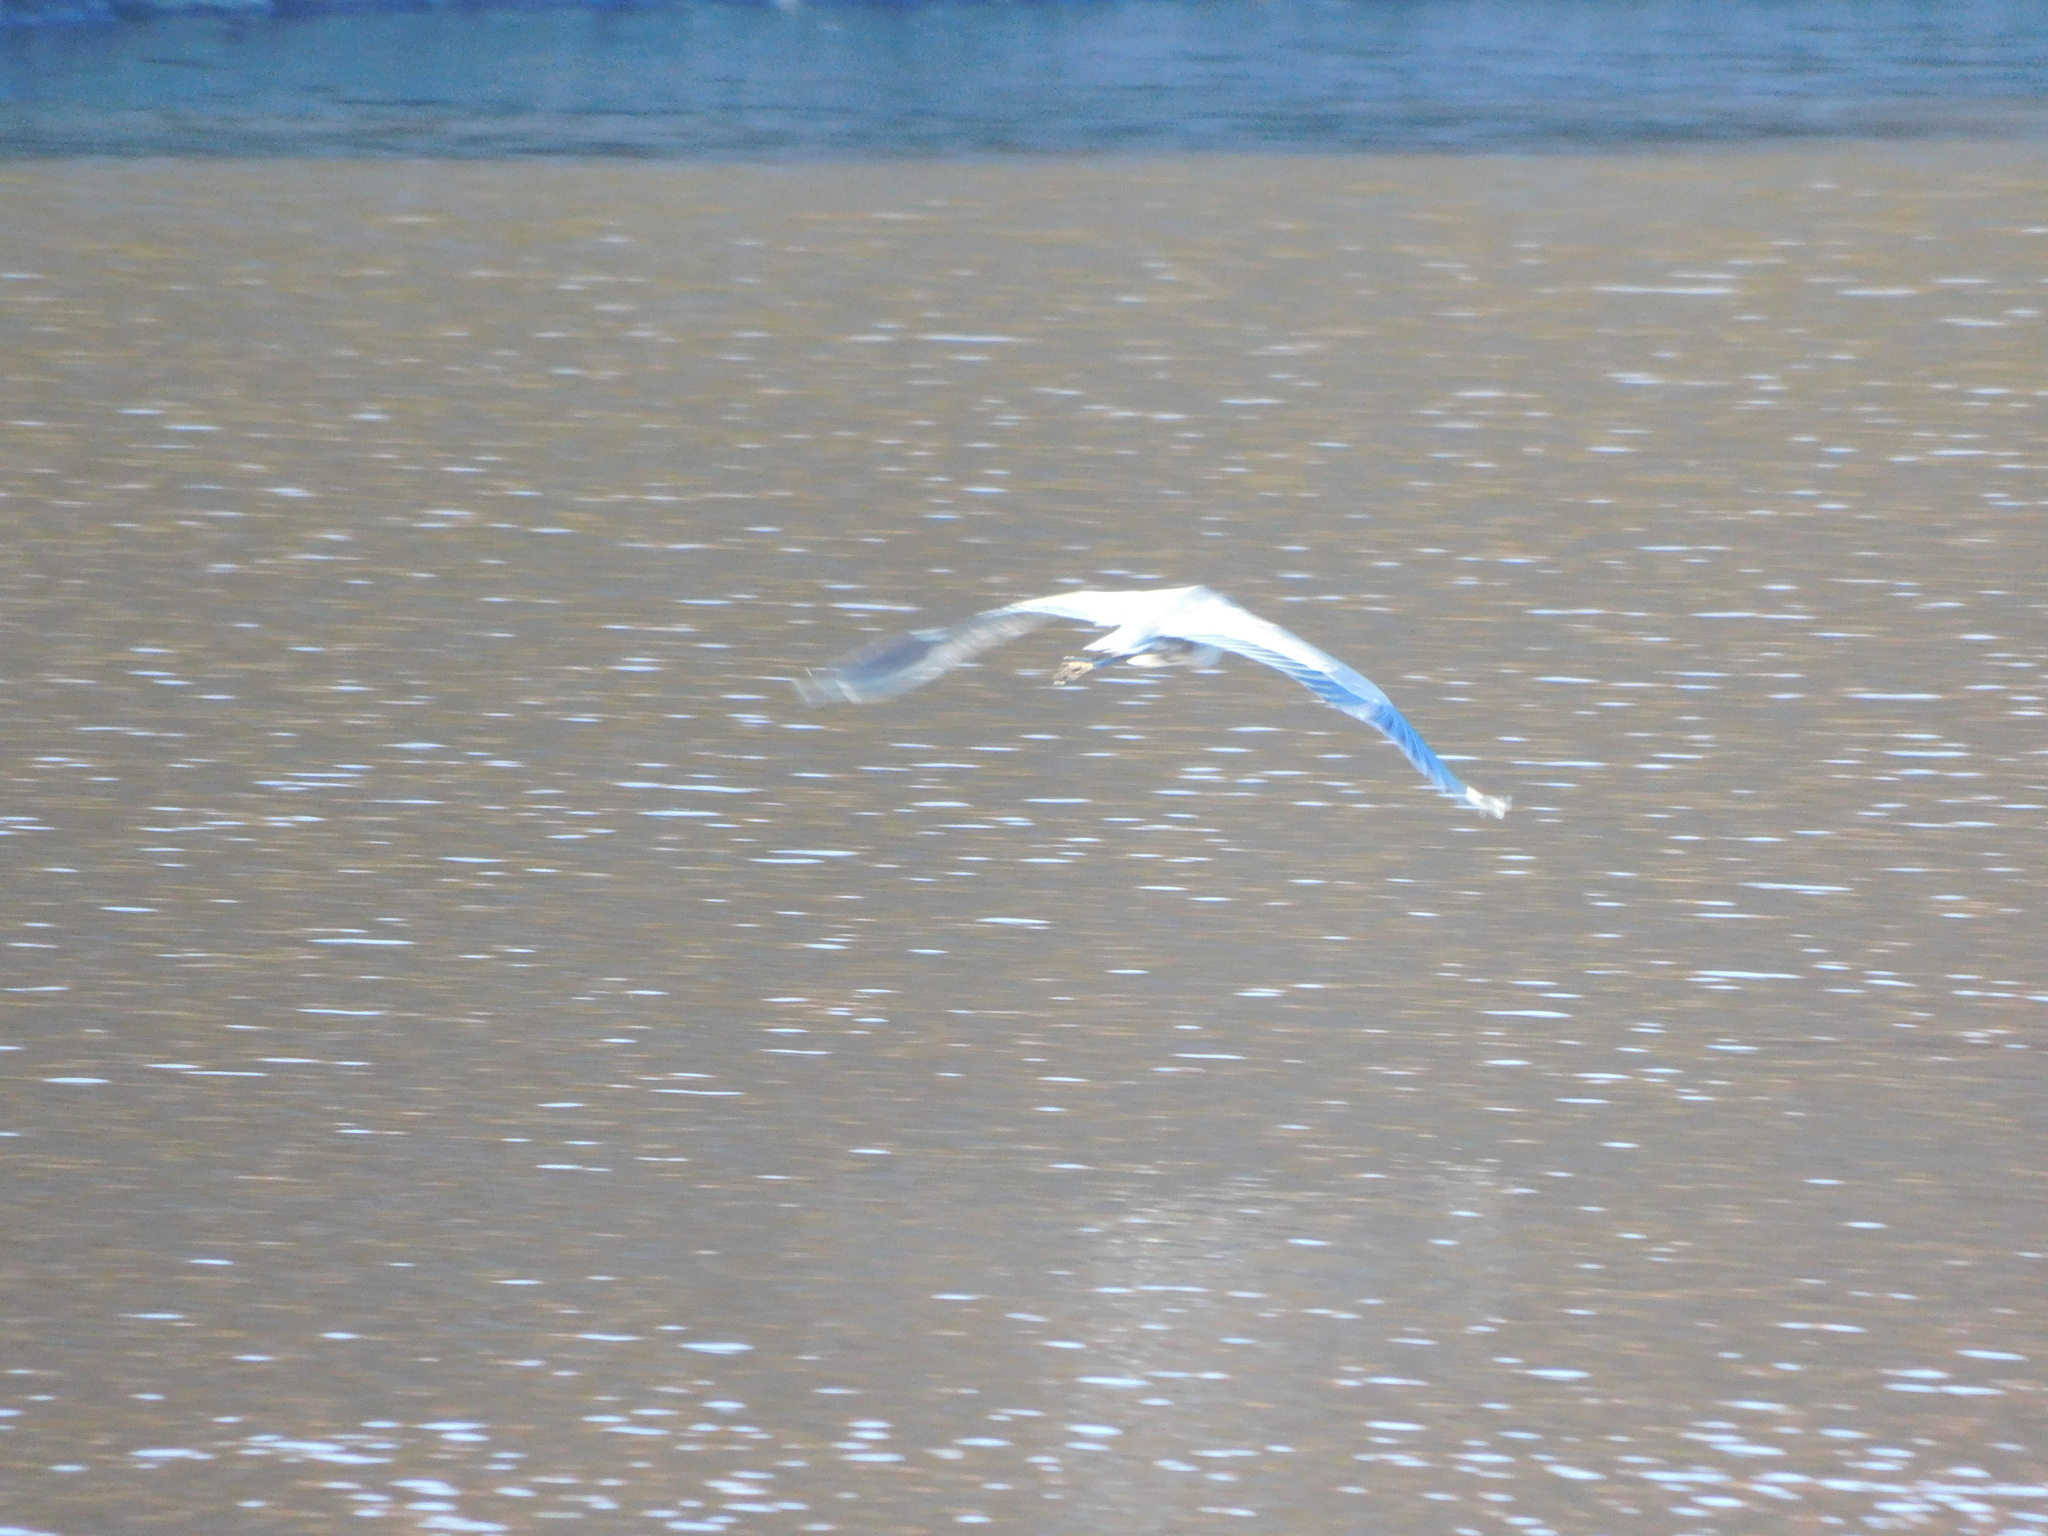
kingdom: Animalia
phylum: Chordata
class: Aves
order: Pelecaniformes
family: Ardeidae
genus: Ardea
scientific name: Ardea herodias
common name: Great blue heron
